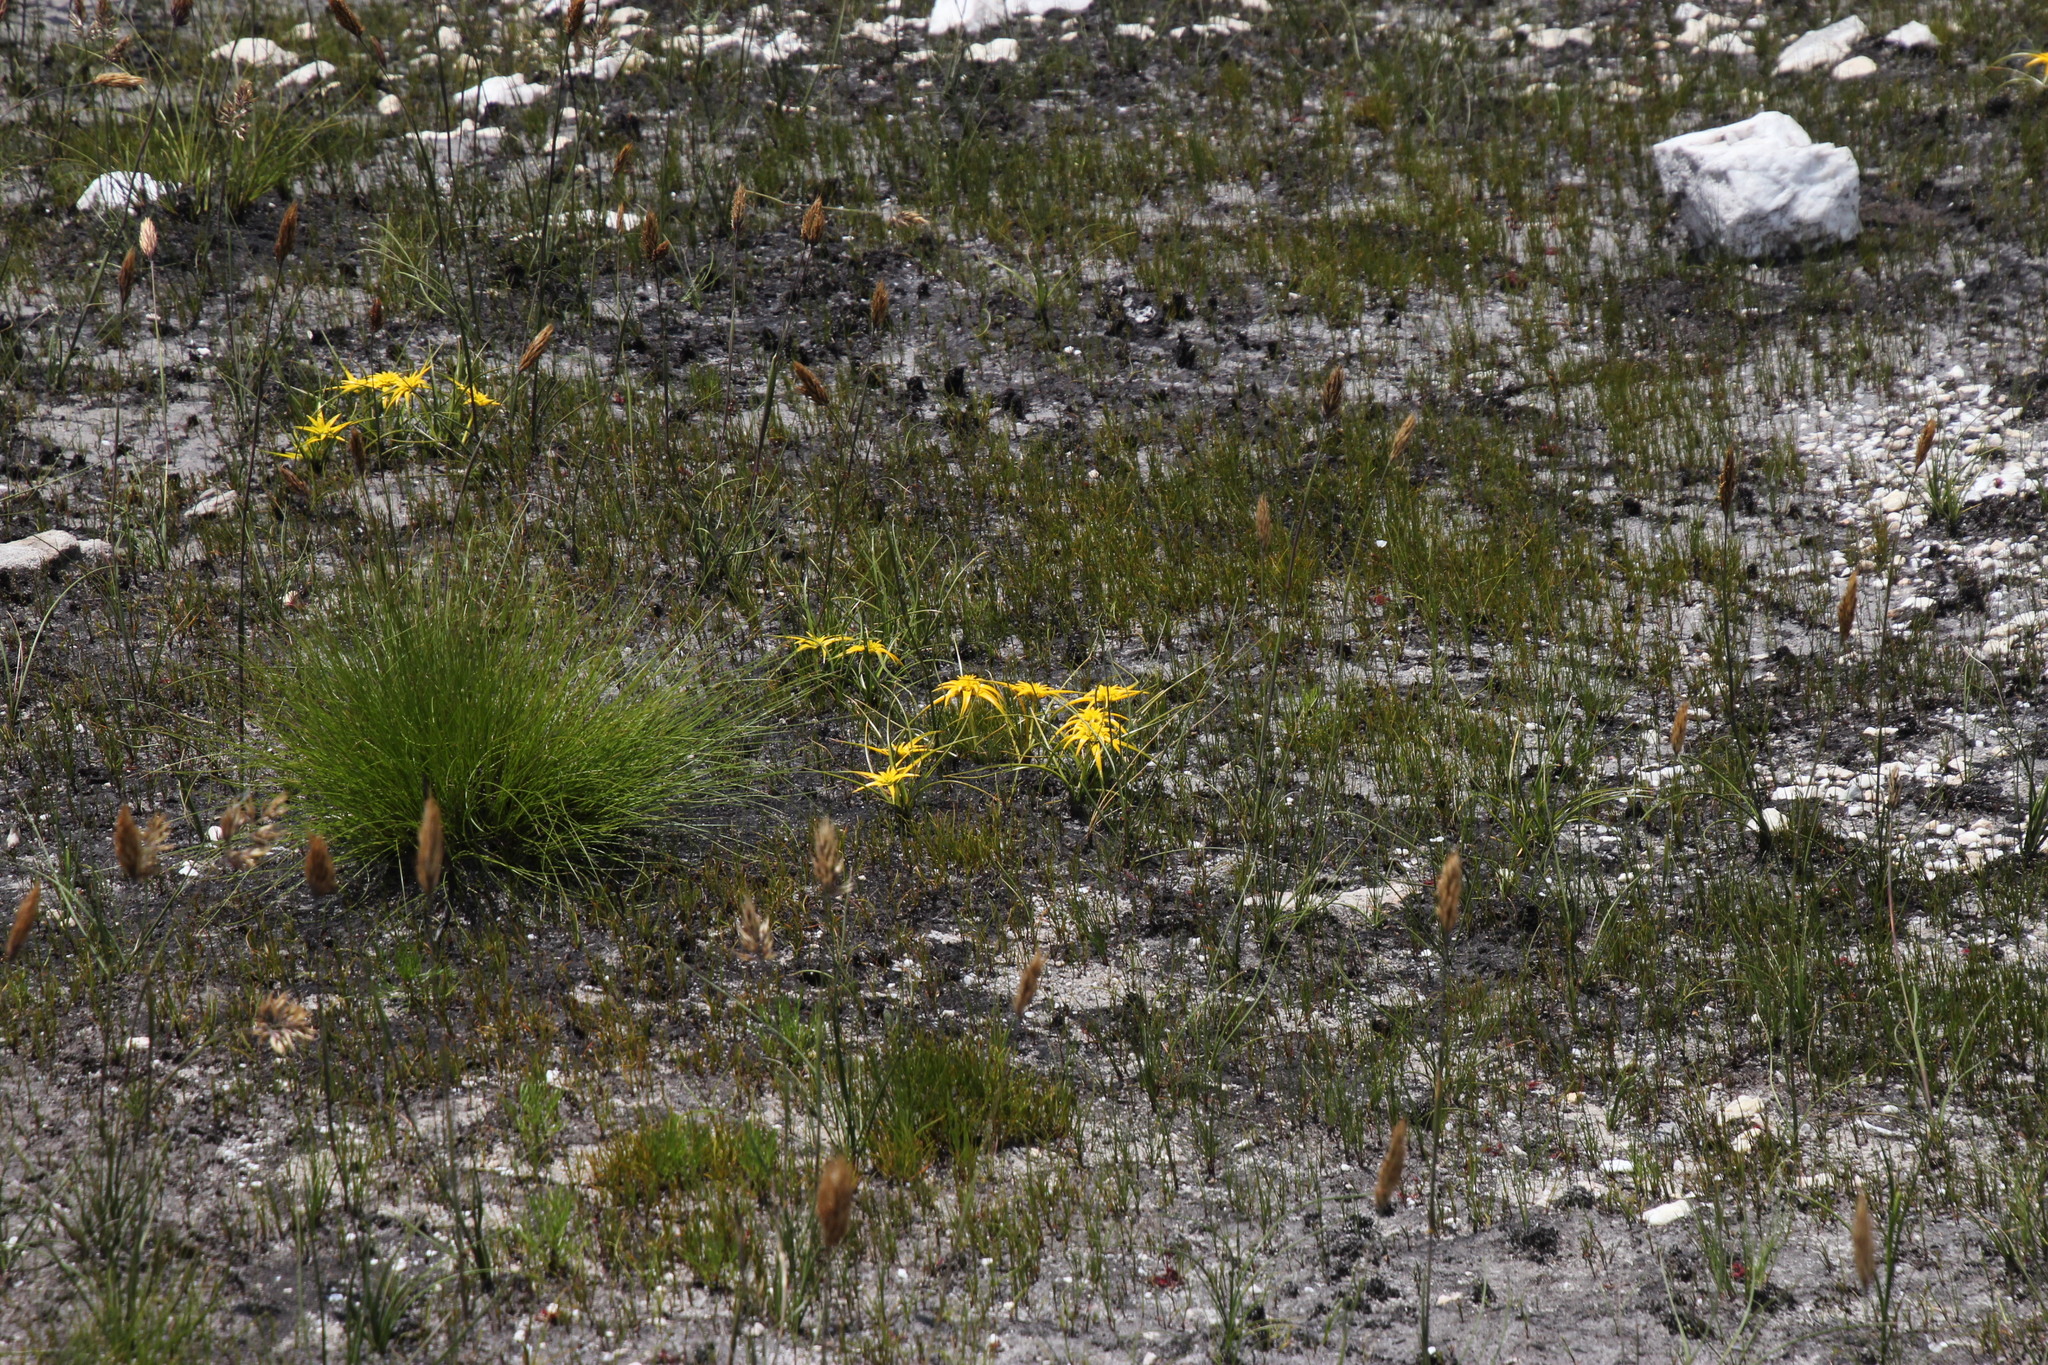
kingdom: Plantae
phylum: Tracheophyta
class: Liliopsida
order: Poales
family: Cyperaceae
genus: Ficinia
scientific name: Ficinia radiata
